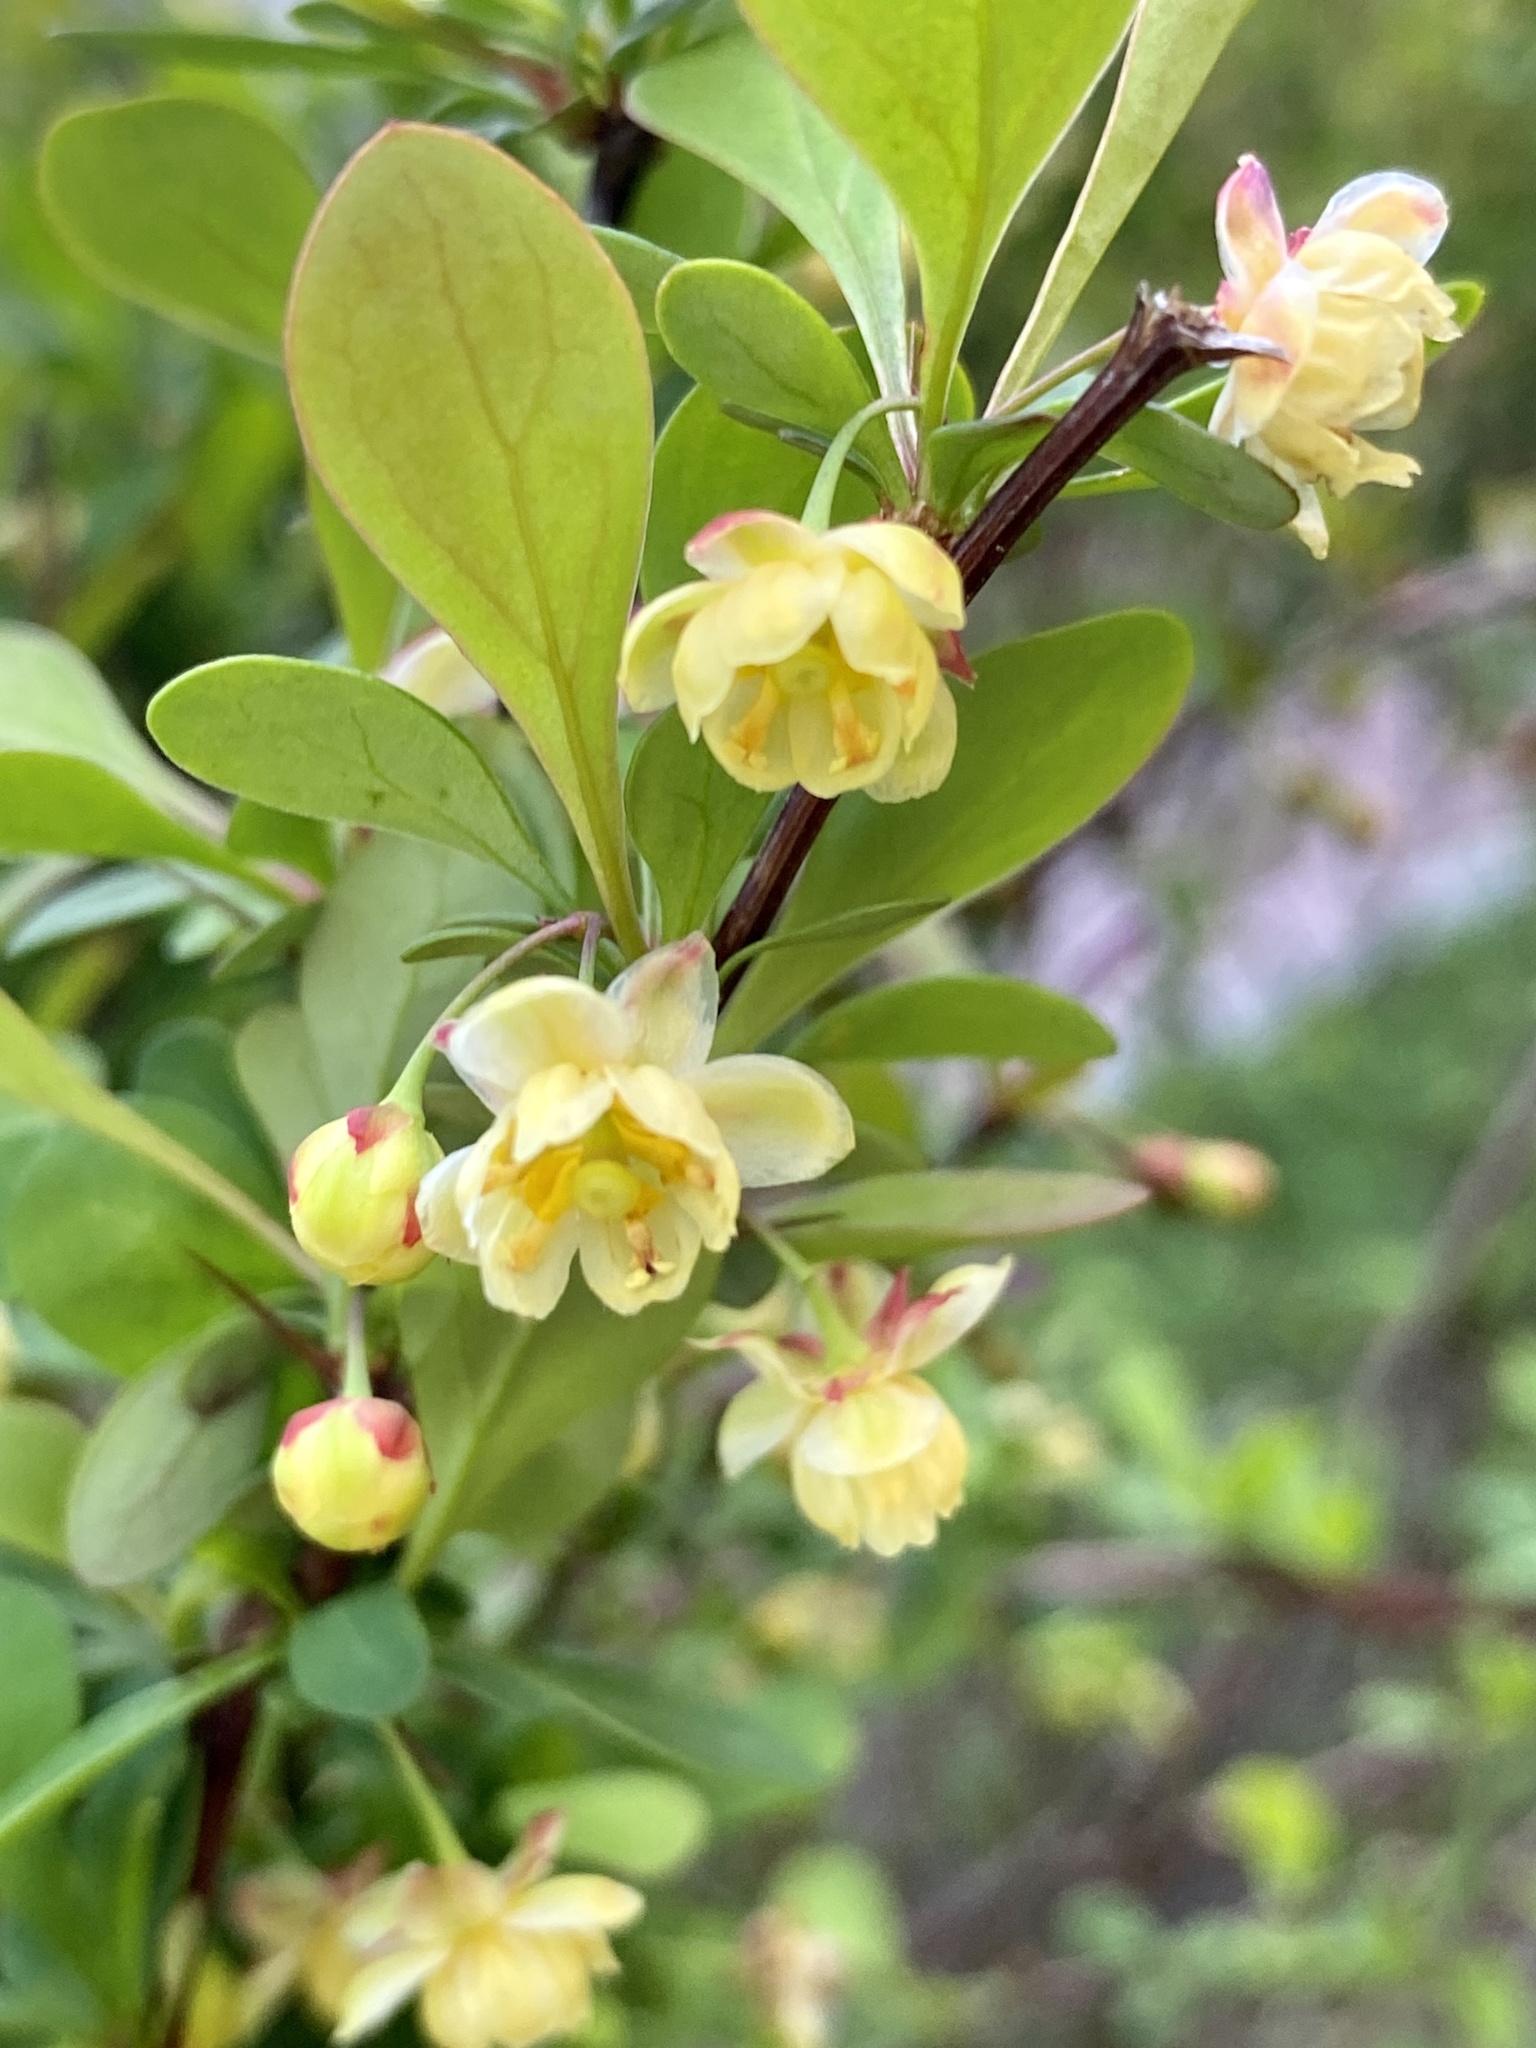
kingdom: Plantae
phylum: Tracheophyta
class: Magnoliopsida
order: Ranunculales
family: Berberidaceae
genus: Berberis
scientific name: Berberis thunbergii
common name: Japanese barberry
